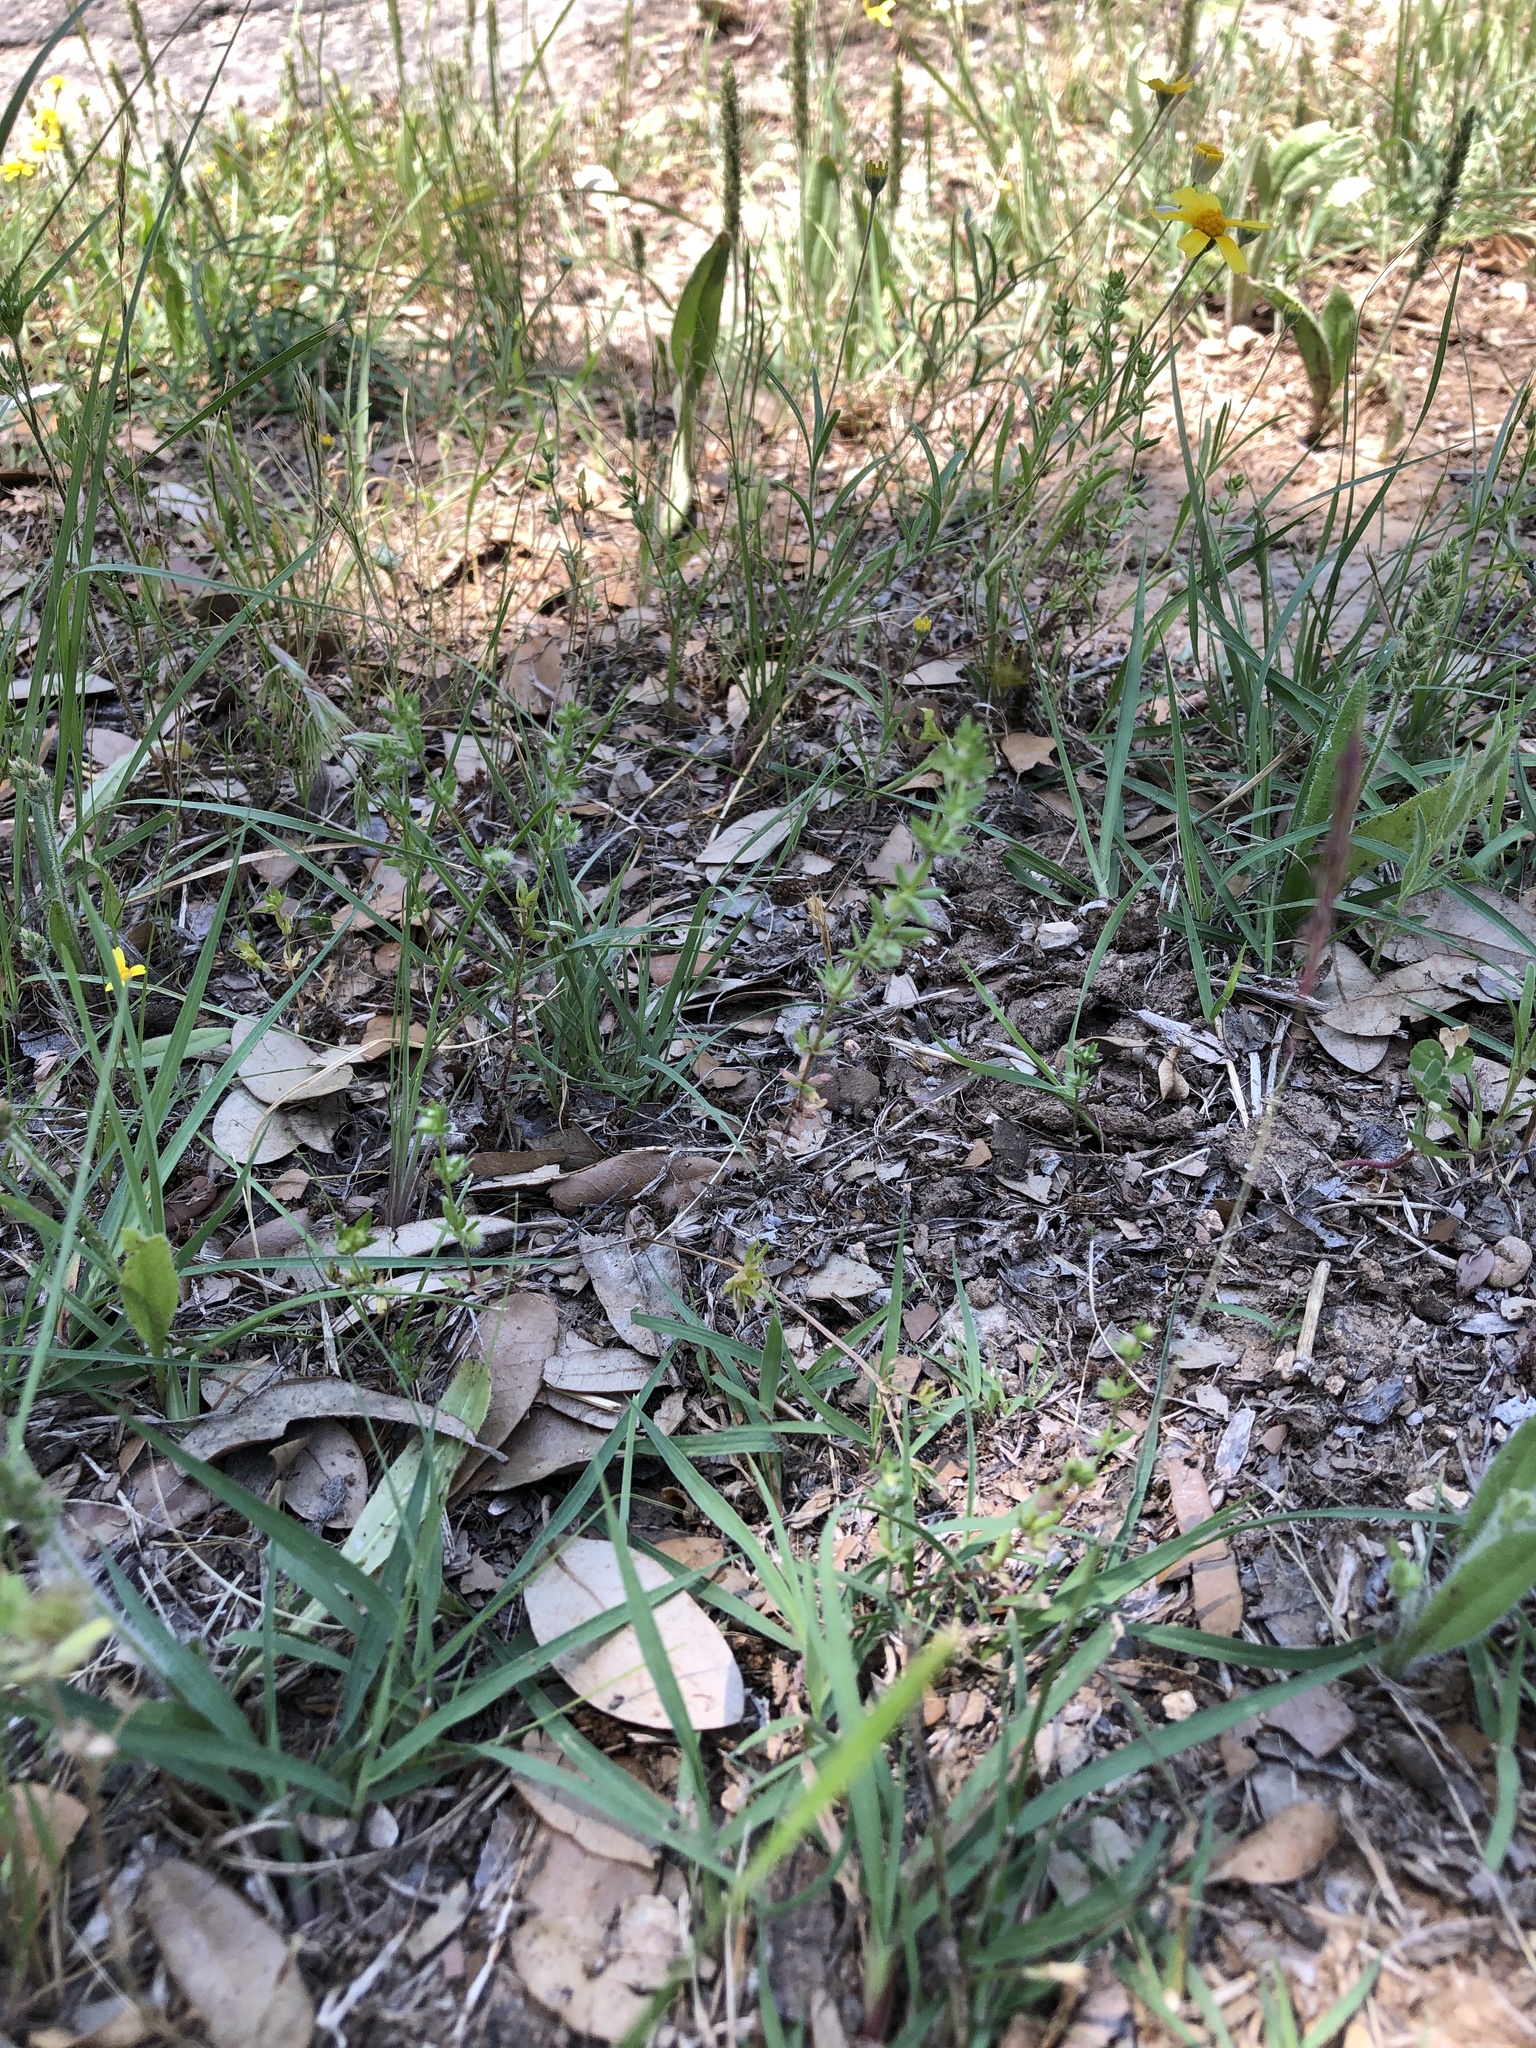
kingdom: Plantae
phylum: Tracheophyta
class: Magnoliopsida
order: Gentianales
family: Rubiaceae
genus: Galium
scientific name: Galium virgatum
